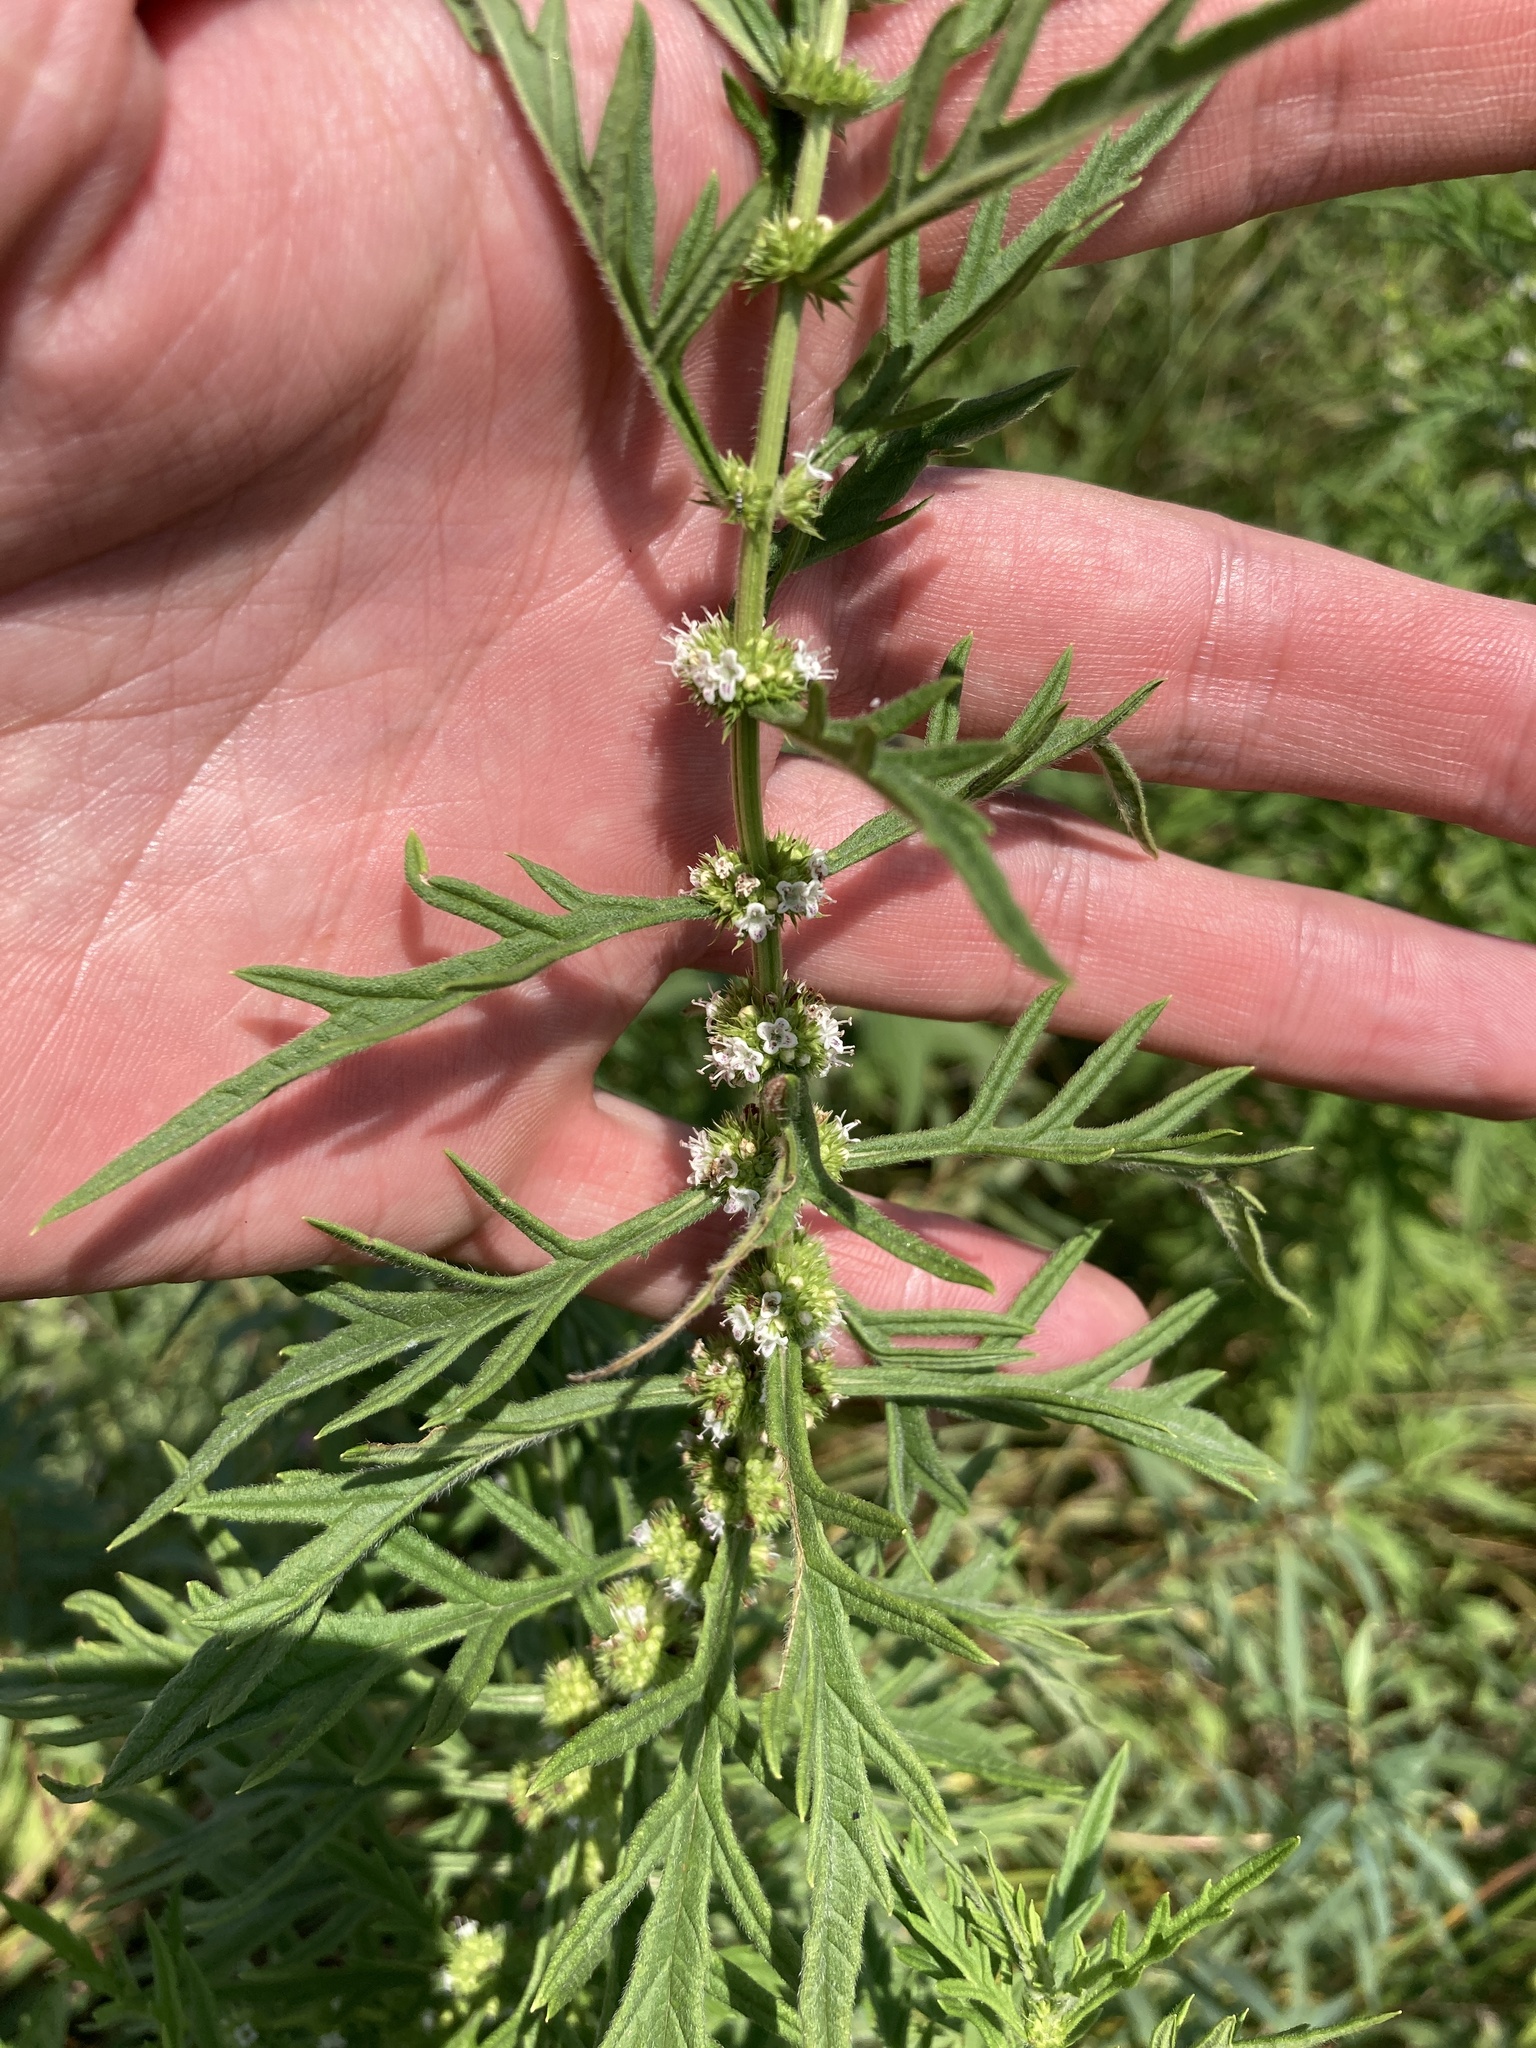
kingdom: Plantae
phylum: Tracheophyta
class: Magnoliopsida
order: Lamiales
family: Lamiaceae
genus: Lycopus
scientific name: Lycopus exaltatus
